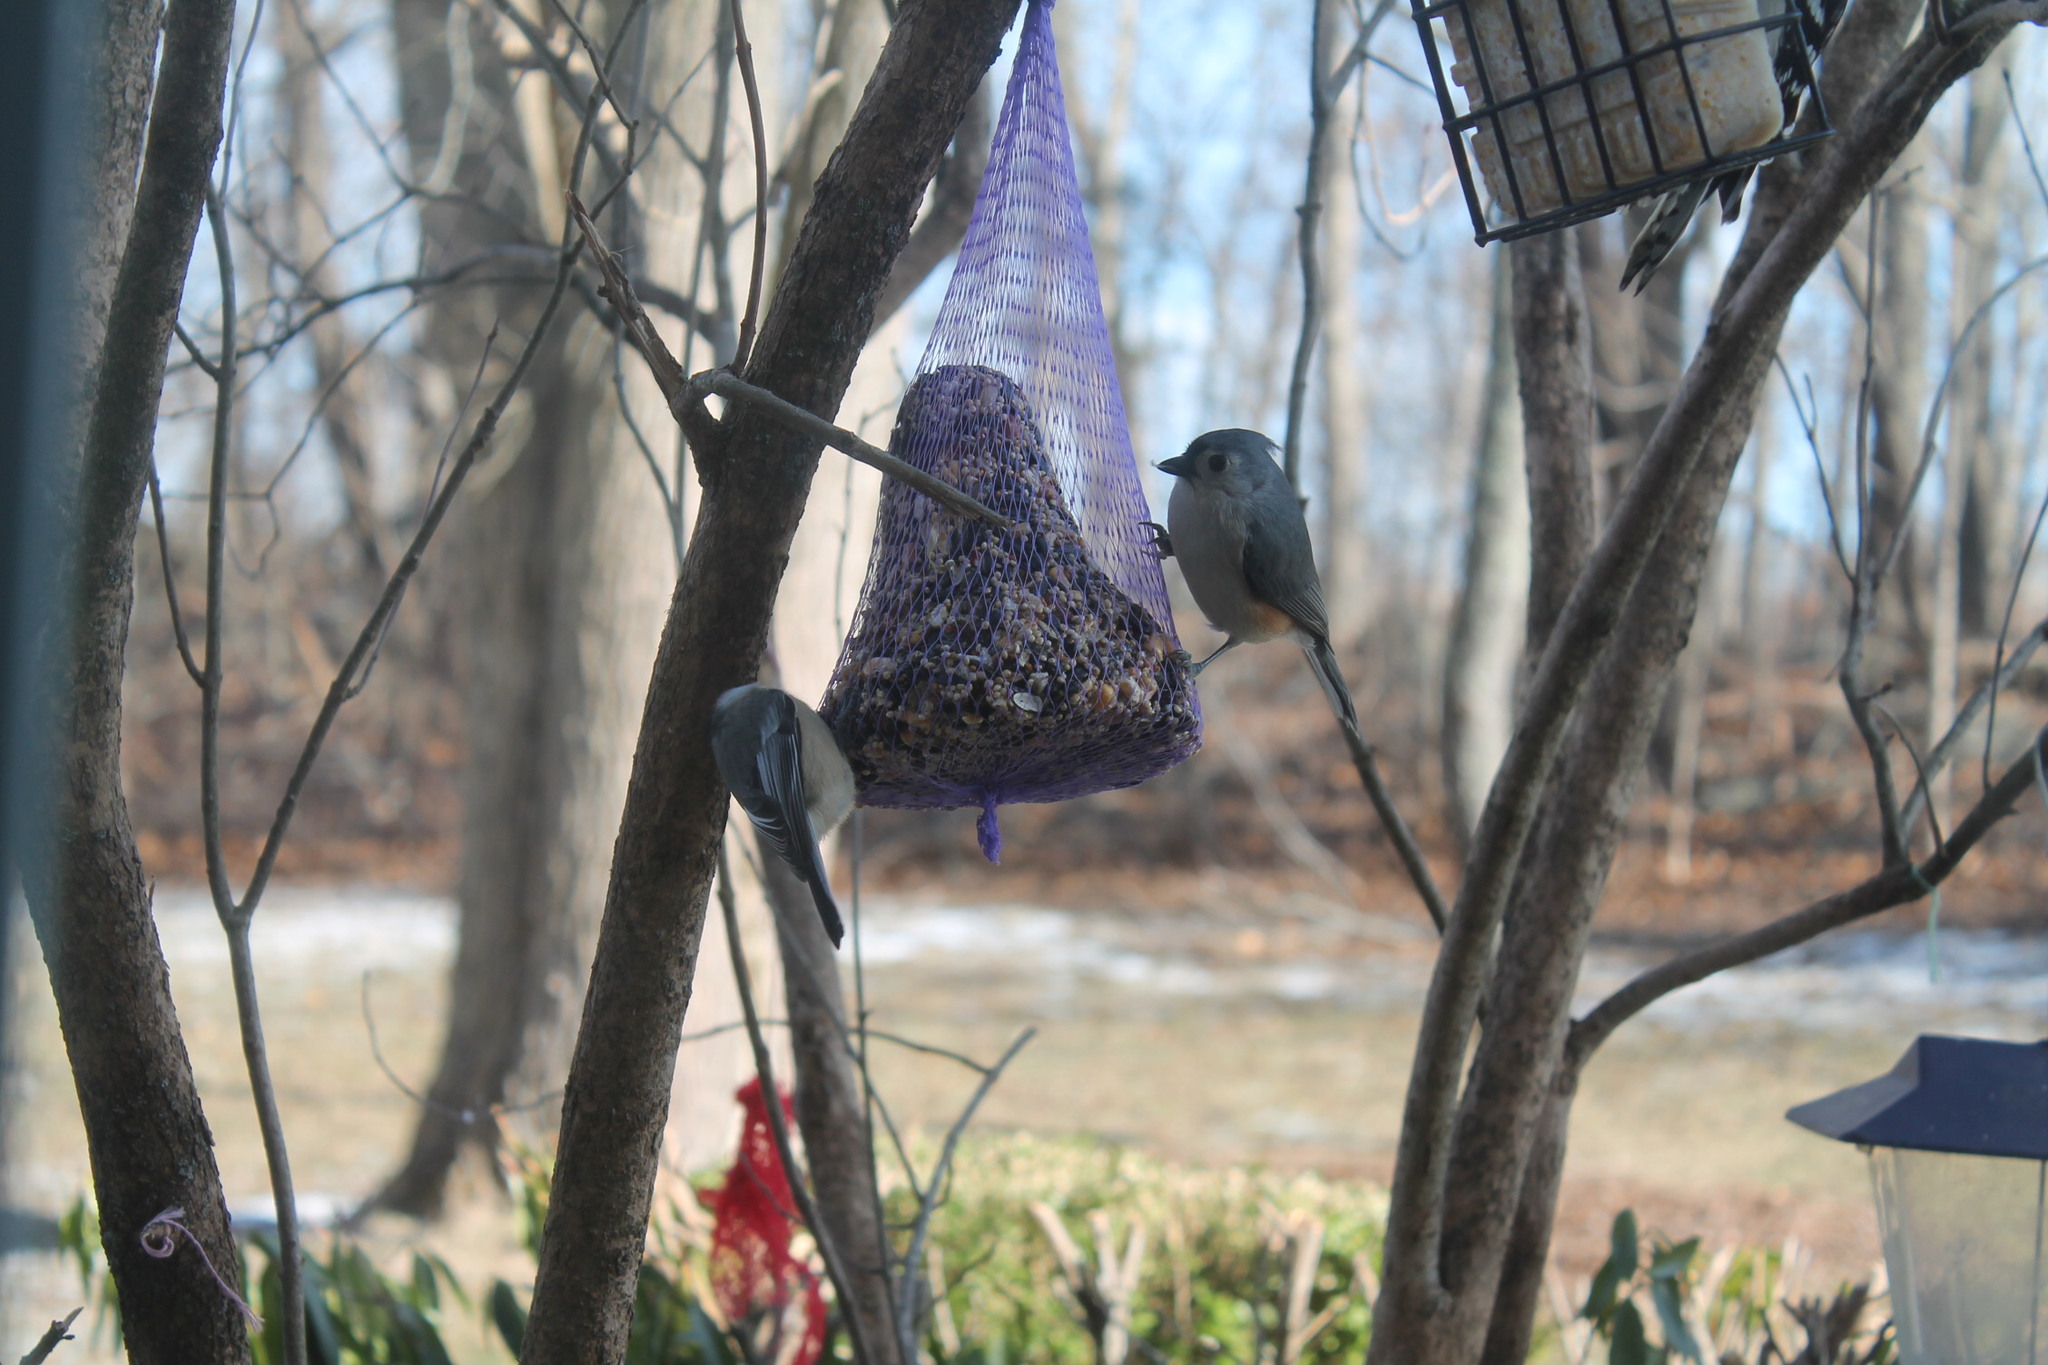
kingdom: Animalia
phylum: Chordata
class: Aves
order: Passeriformes
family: Paridae
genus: Baeolophus
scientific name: Baeolophus bicolor
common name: Tufted titmouse
